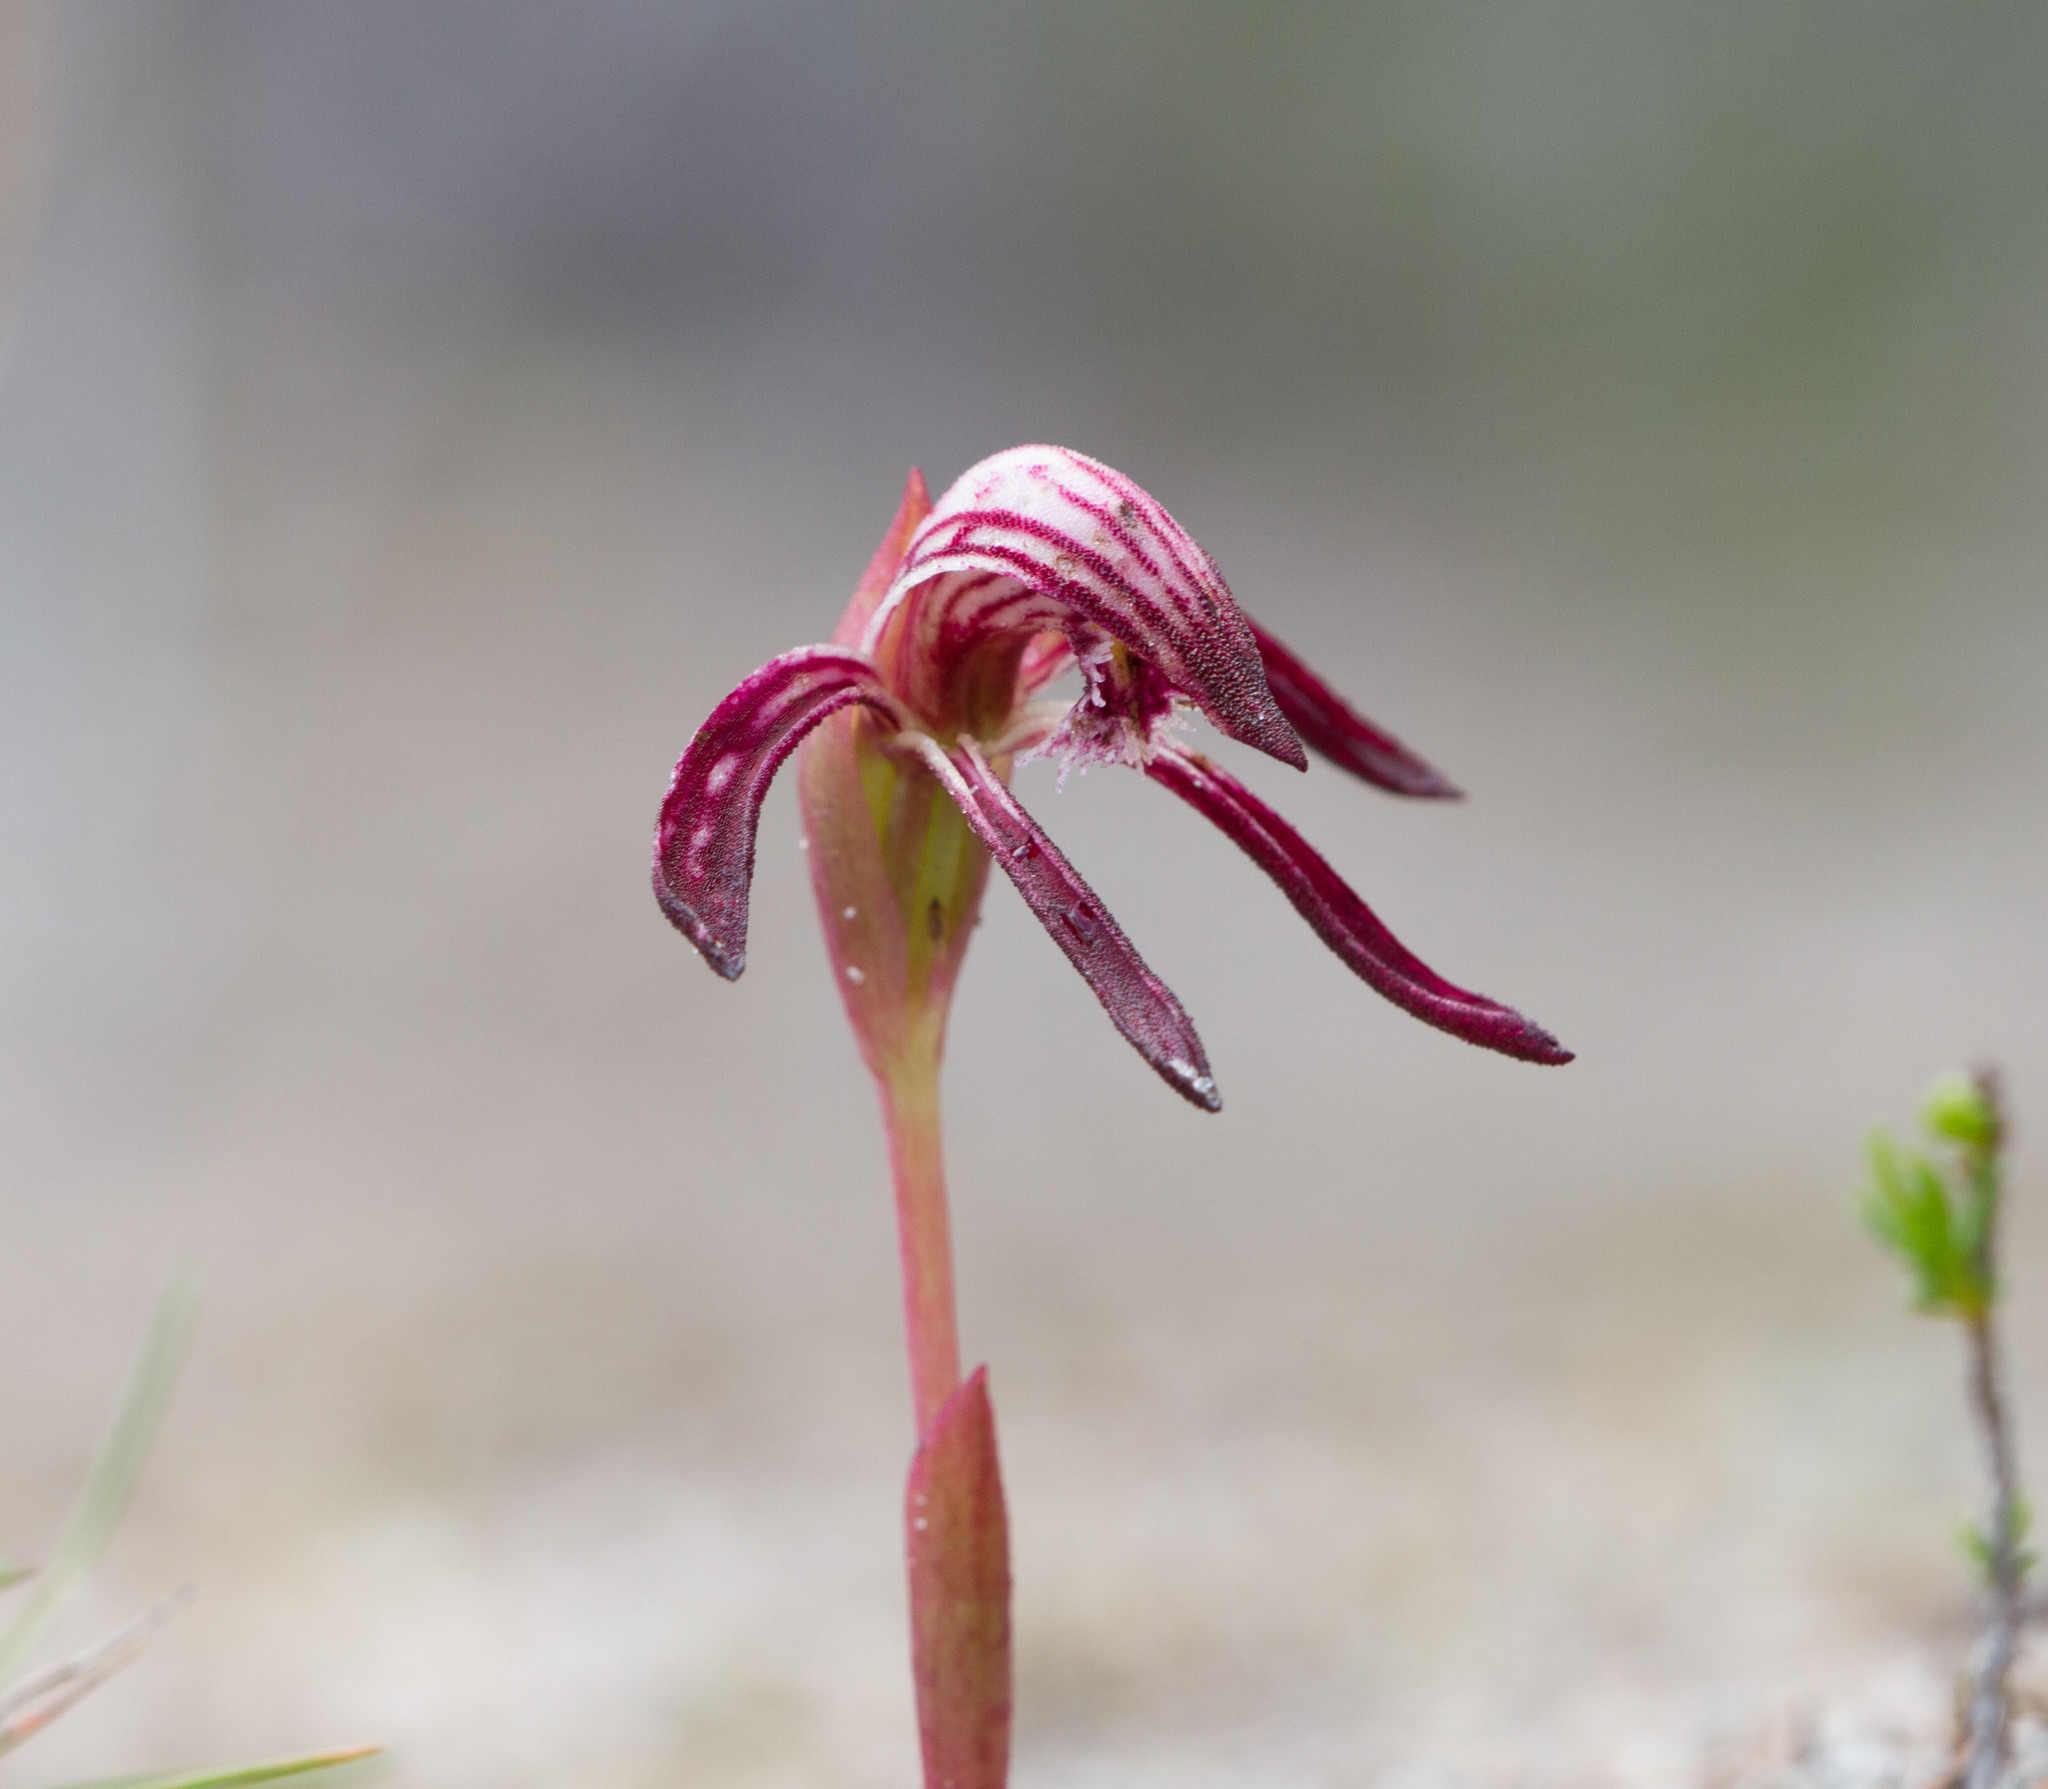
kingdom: Plantae
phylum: Tracheophyta
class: Liliopsida
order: Asparagales
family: Orchidaceae
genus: Pyrorchis
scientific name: Pyrorchis nigricans
